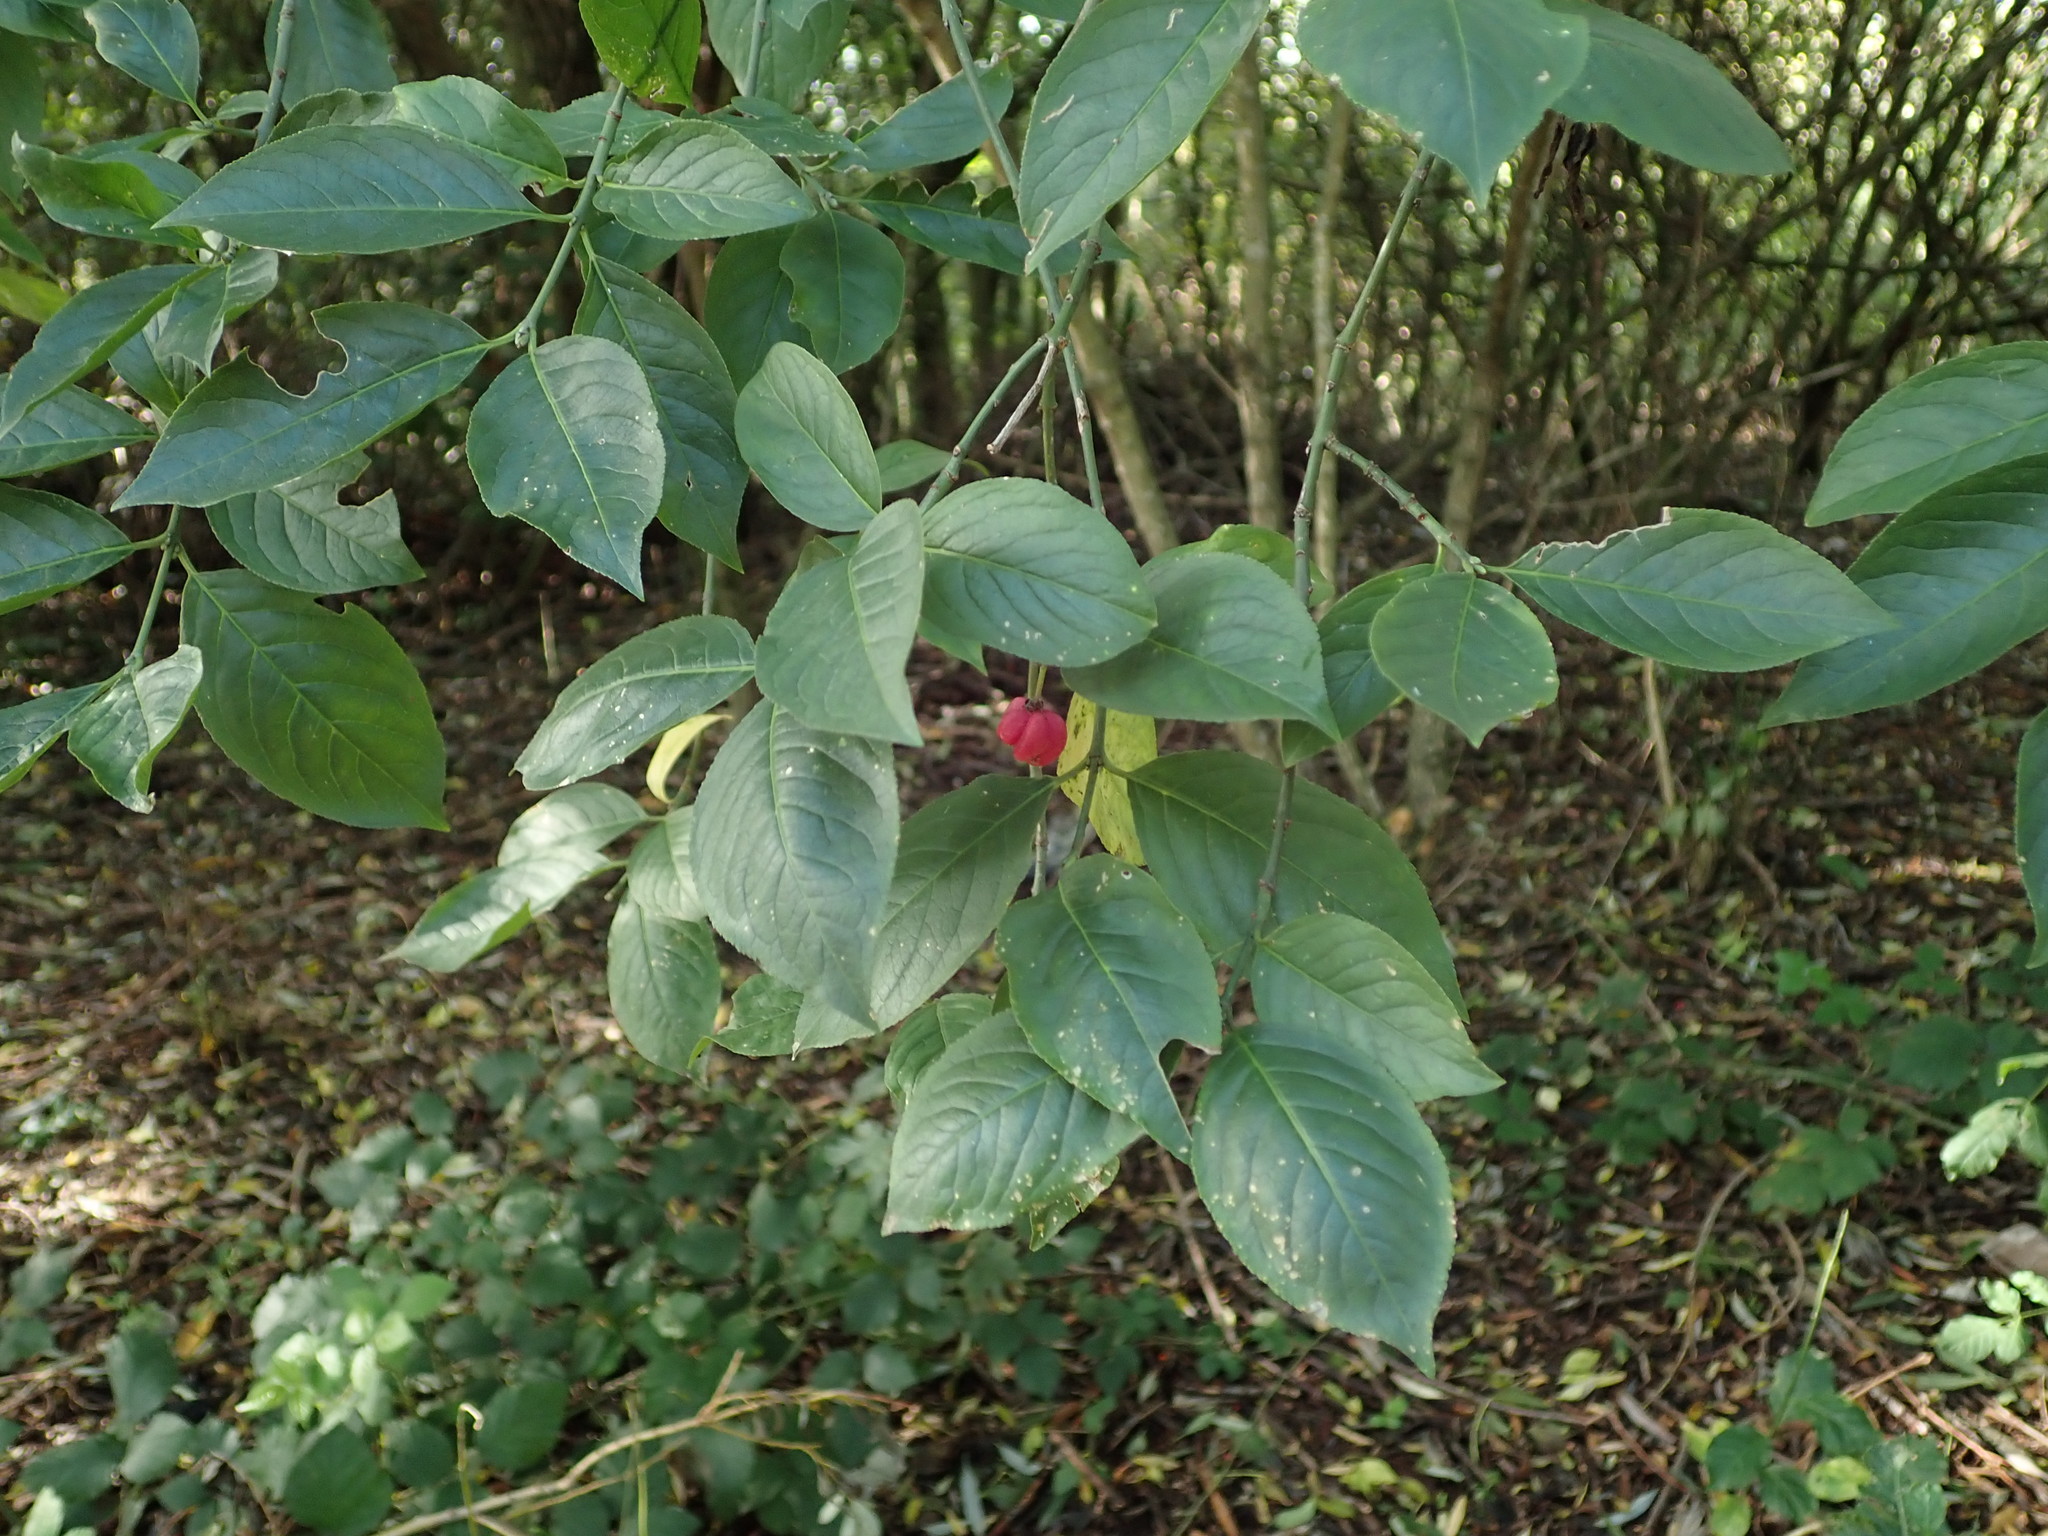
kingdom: Plantae
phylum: Tracheophyta
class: Magnoliopsida
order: Celastrales
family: Celastraceae
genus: Euonymus
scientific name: Euonymus europaeus
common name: Spindle
